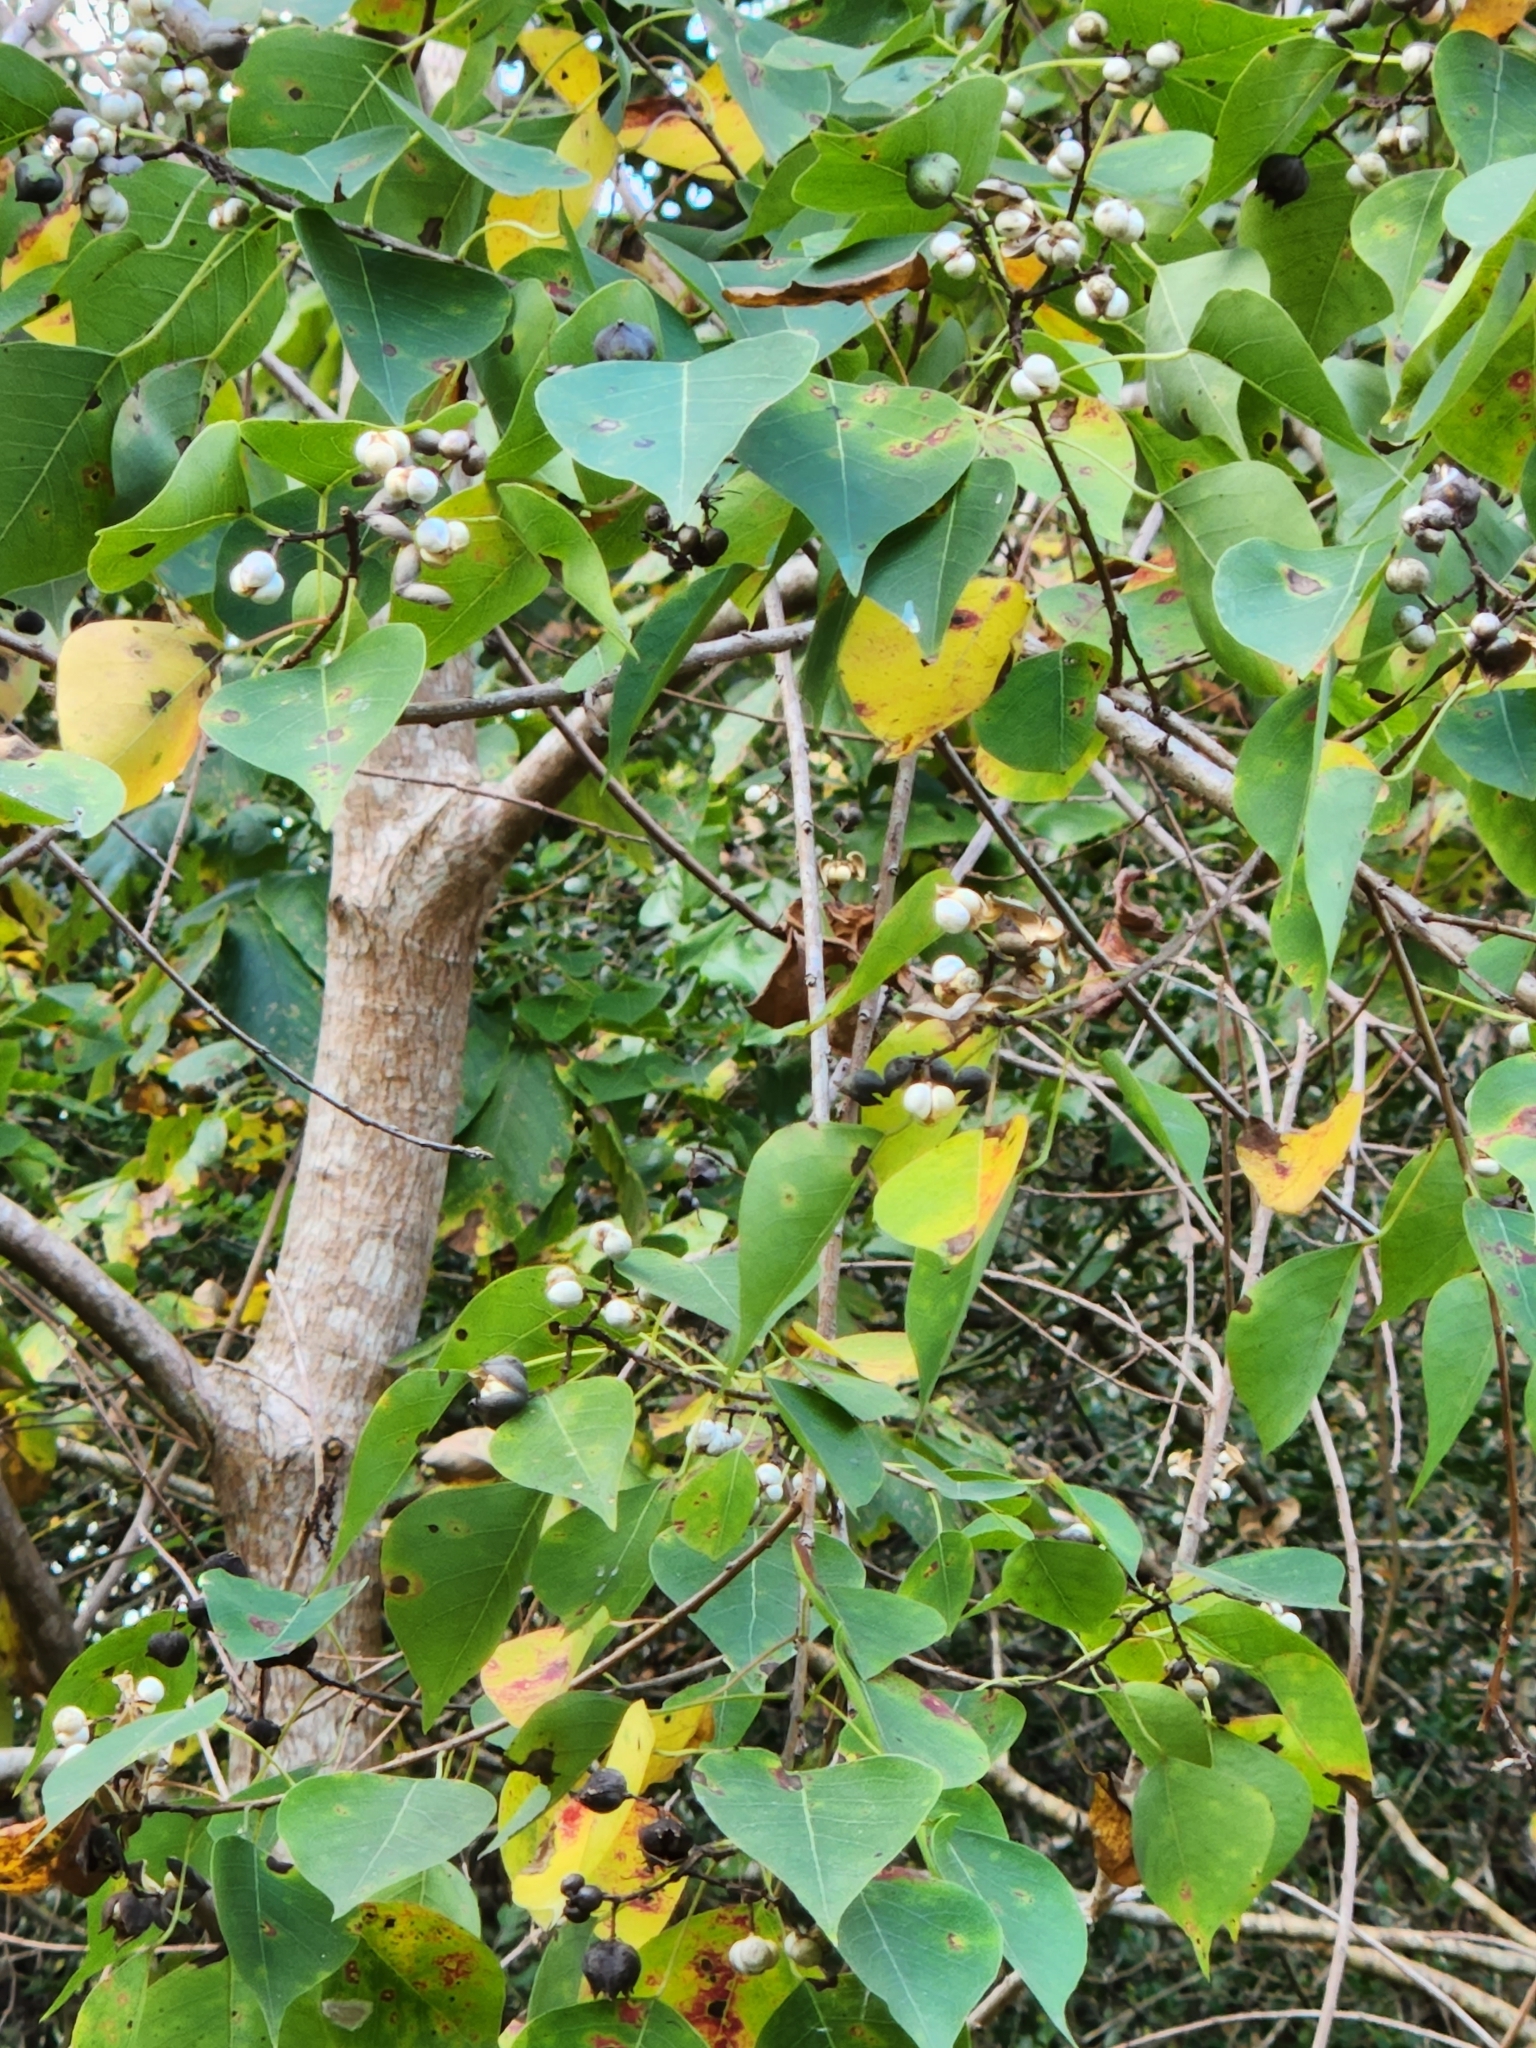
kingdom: Plantae
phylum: Tracheophyta
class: Magnoliopsida
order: Malpighiales
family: Euphorbiaceae
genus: Triadica
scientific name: Triadica sebifera
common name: Chinese tallow
